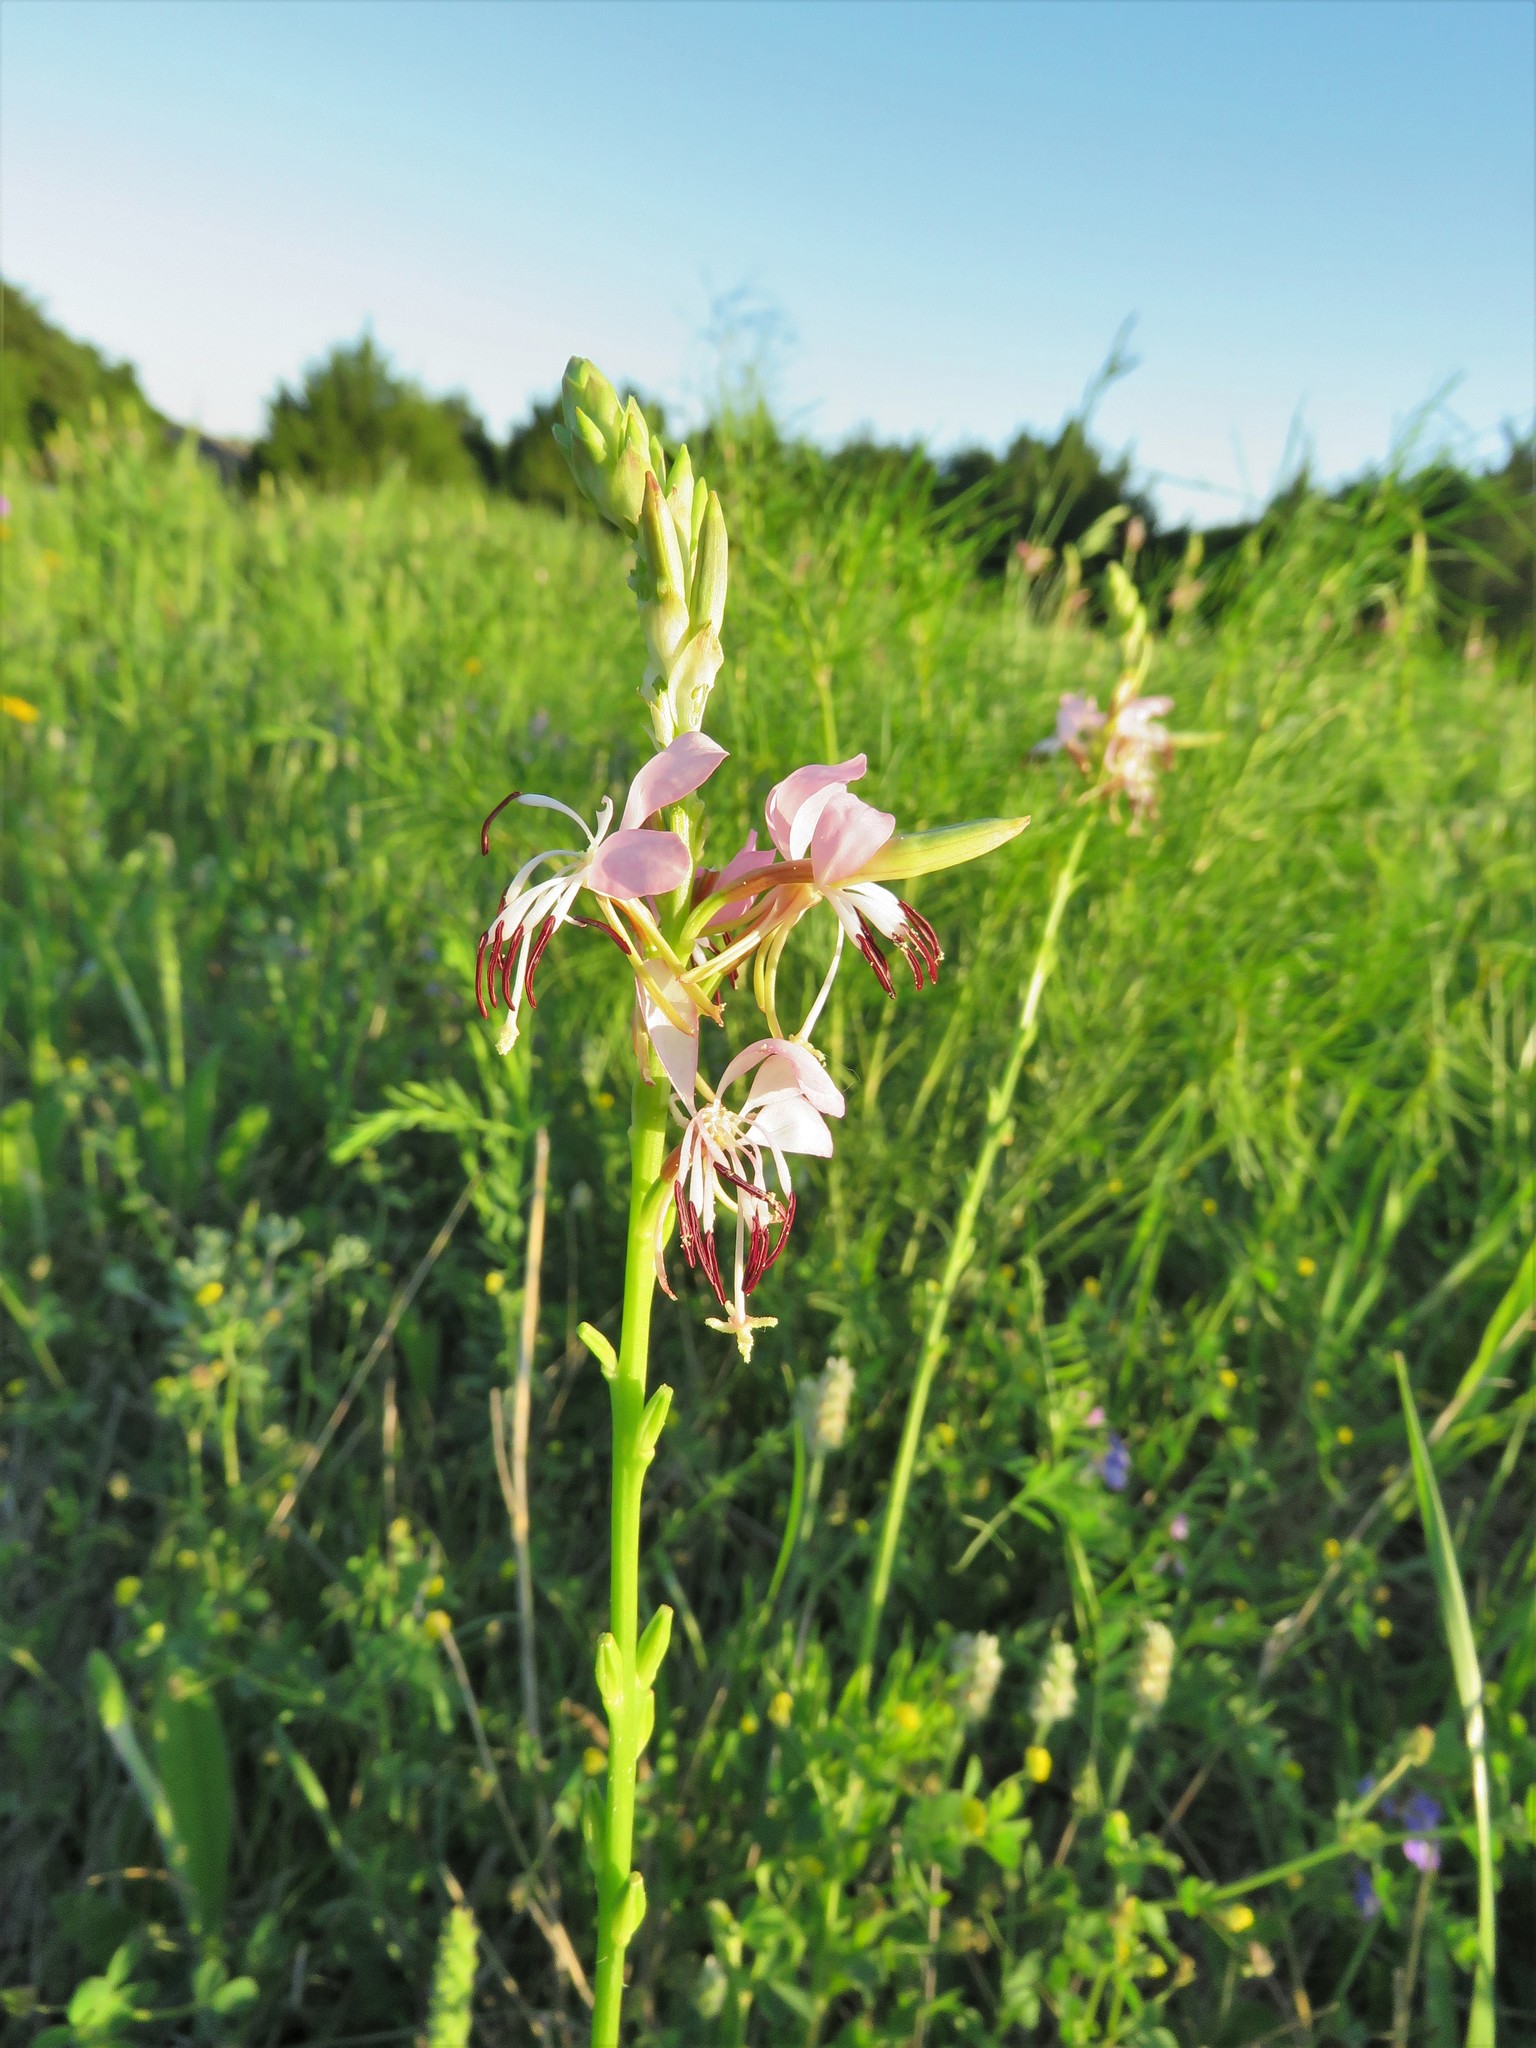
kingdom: Plantae
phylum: Tracheophyta
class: Magnoliopsida
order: Myrtales
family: Onagraceae
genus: Oenothera
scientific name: Oenothera suffulta
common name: Kisses
